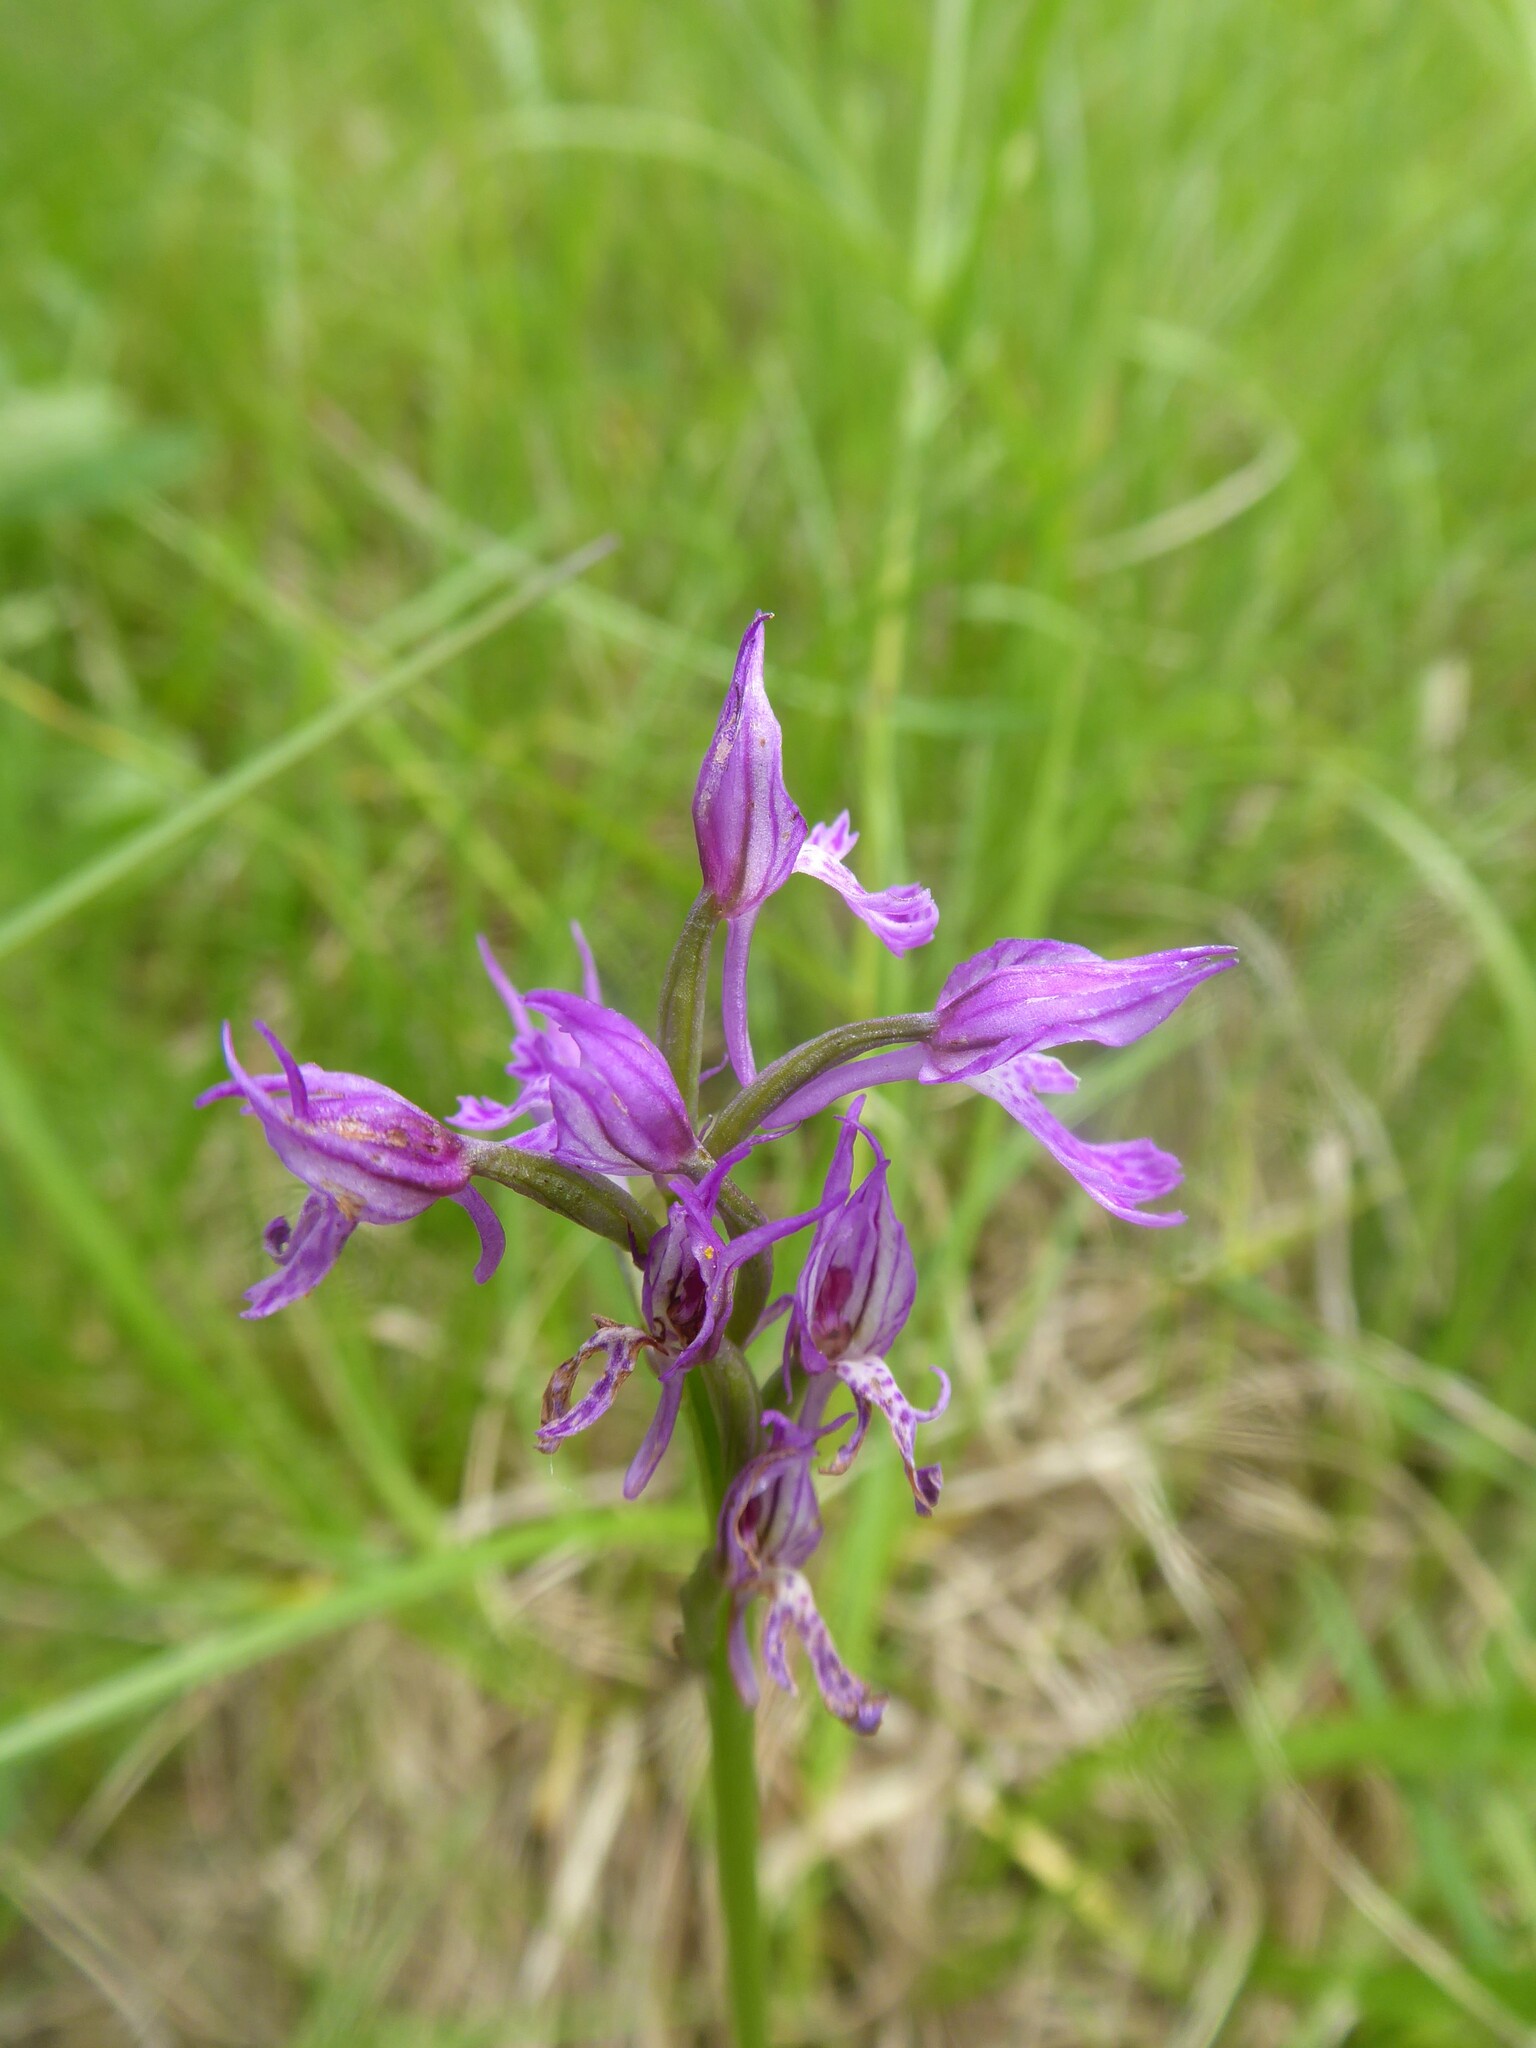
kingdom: Plantae
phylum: Tracheophyta
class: Liliopsida
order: Asparagales
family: Orchidaceae
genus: Neotinea
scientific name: Neotinea tridentata
